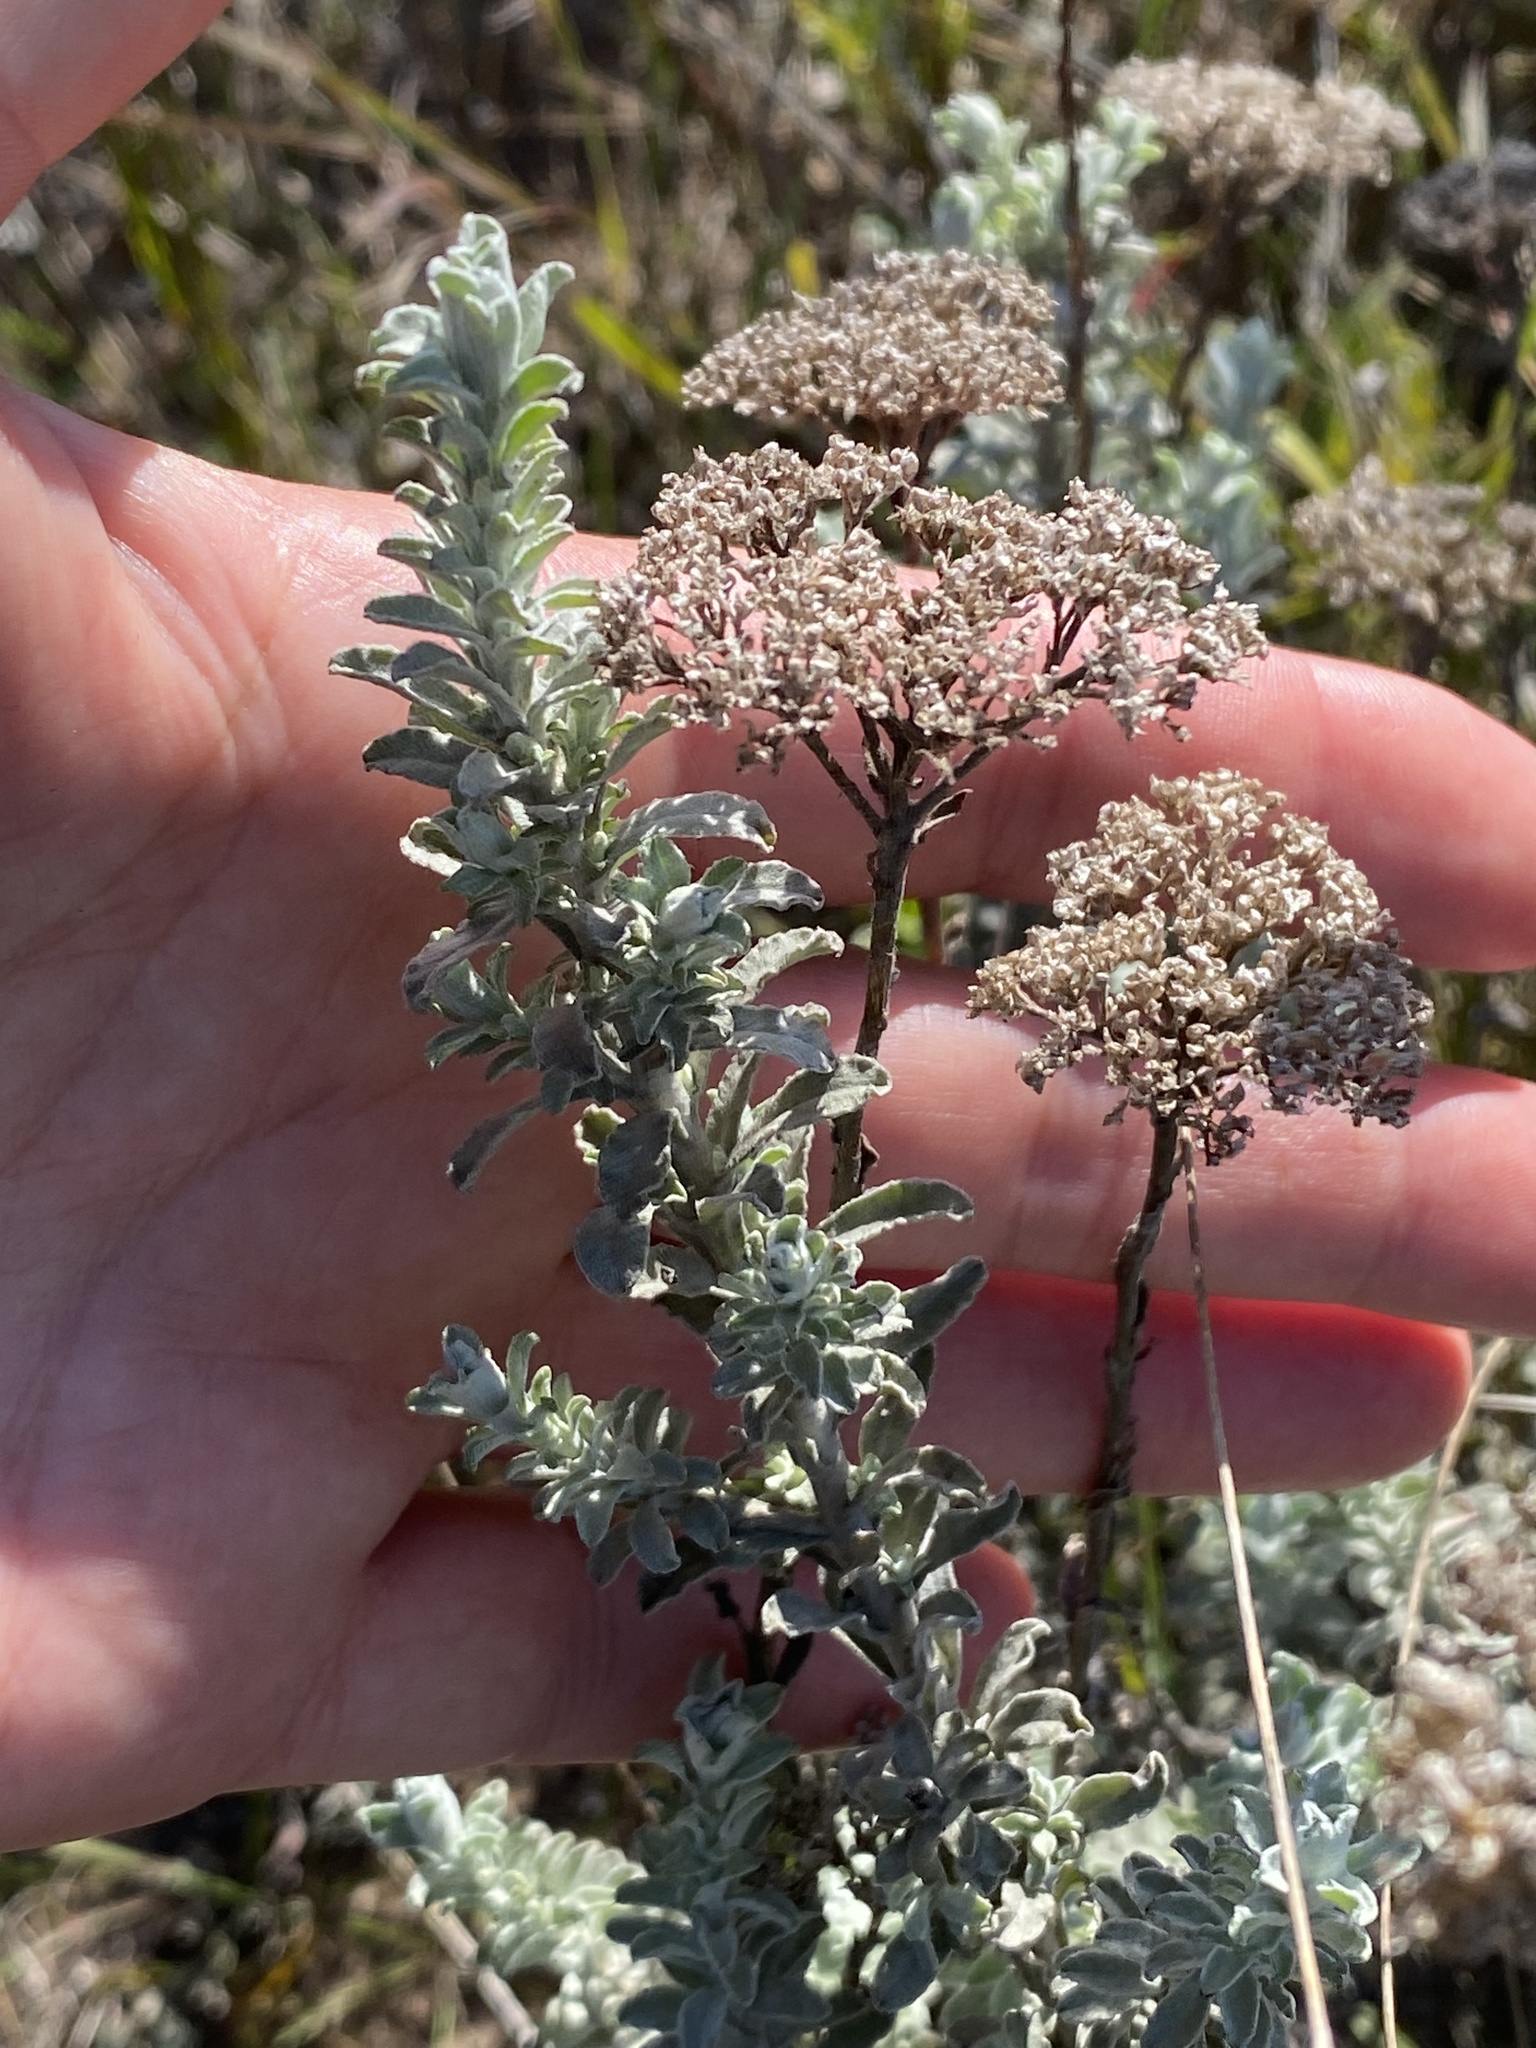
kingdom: Plantae
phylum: Tracheophyta
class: Magnoliopsida
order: Asterales
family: Asteraceae
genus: Helichrysum
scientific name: Helichrysum rutilans
